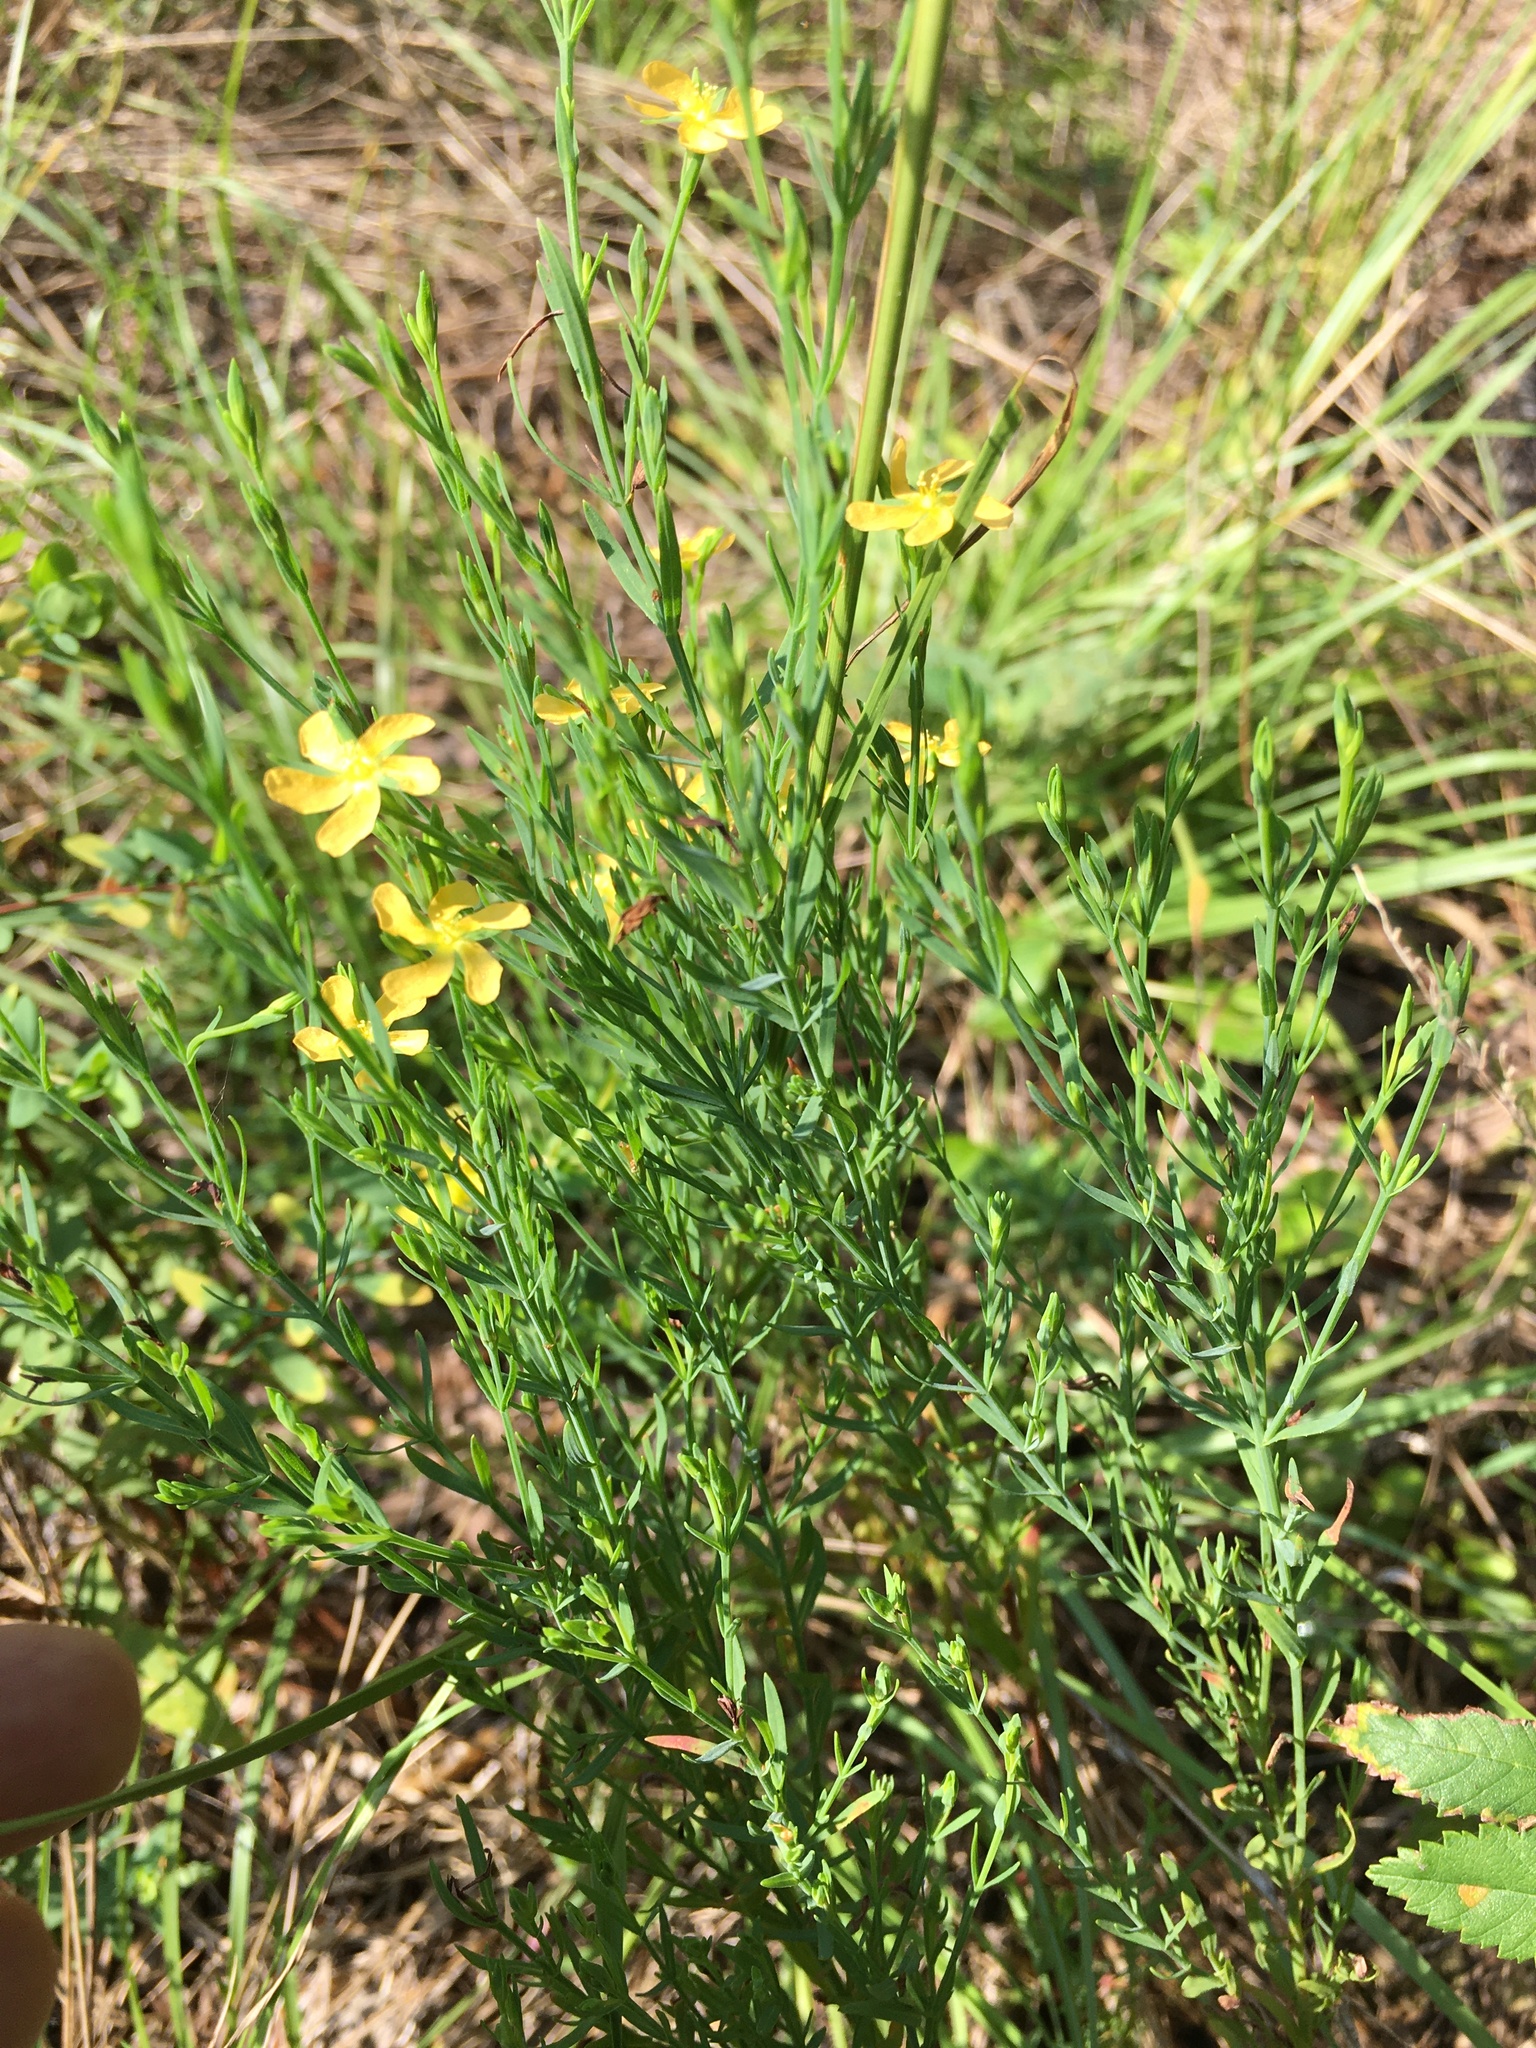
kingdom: Plantae
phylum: Tracheophyta
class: Magnoliopsida
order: Malpighiales
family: Hypericaceae
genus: Hypericum
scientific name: Hypericum drummondii
